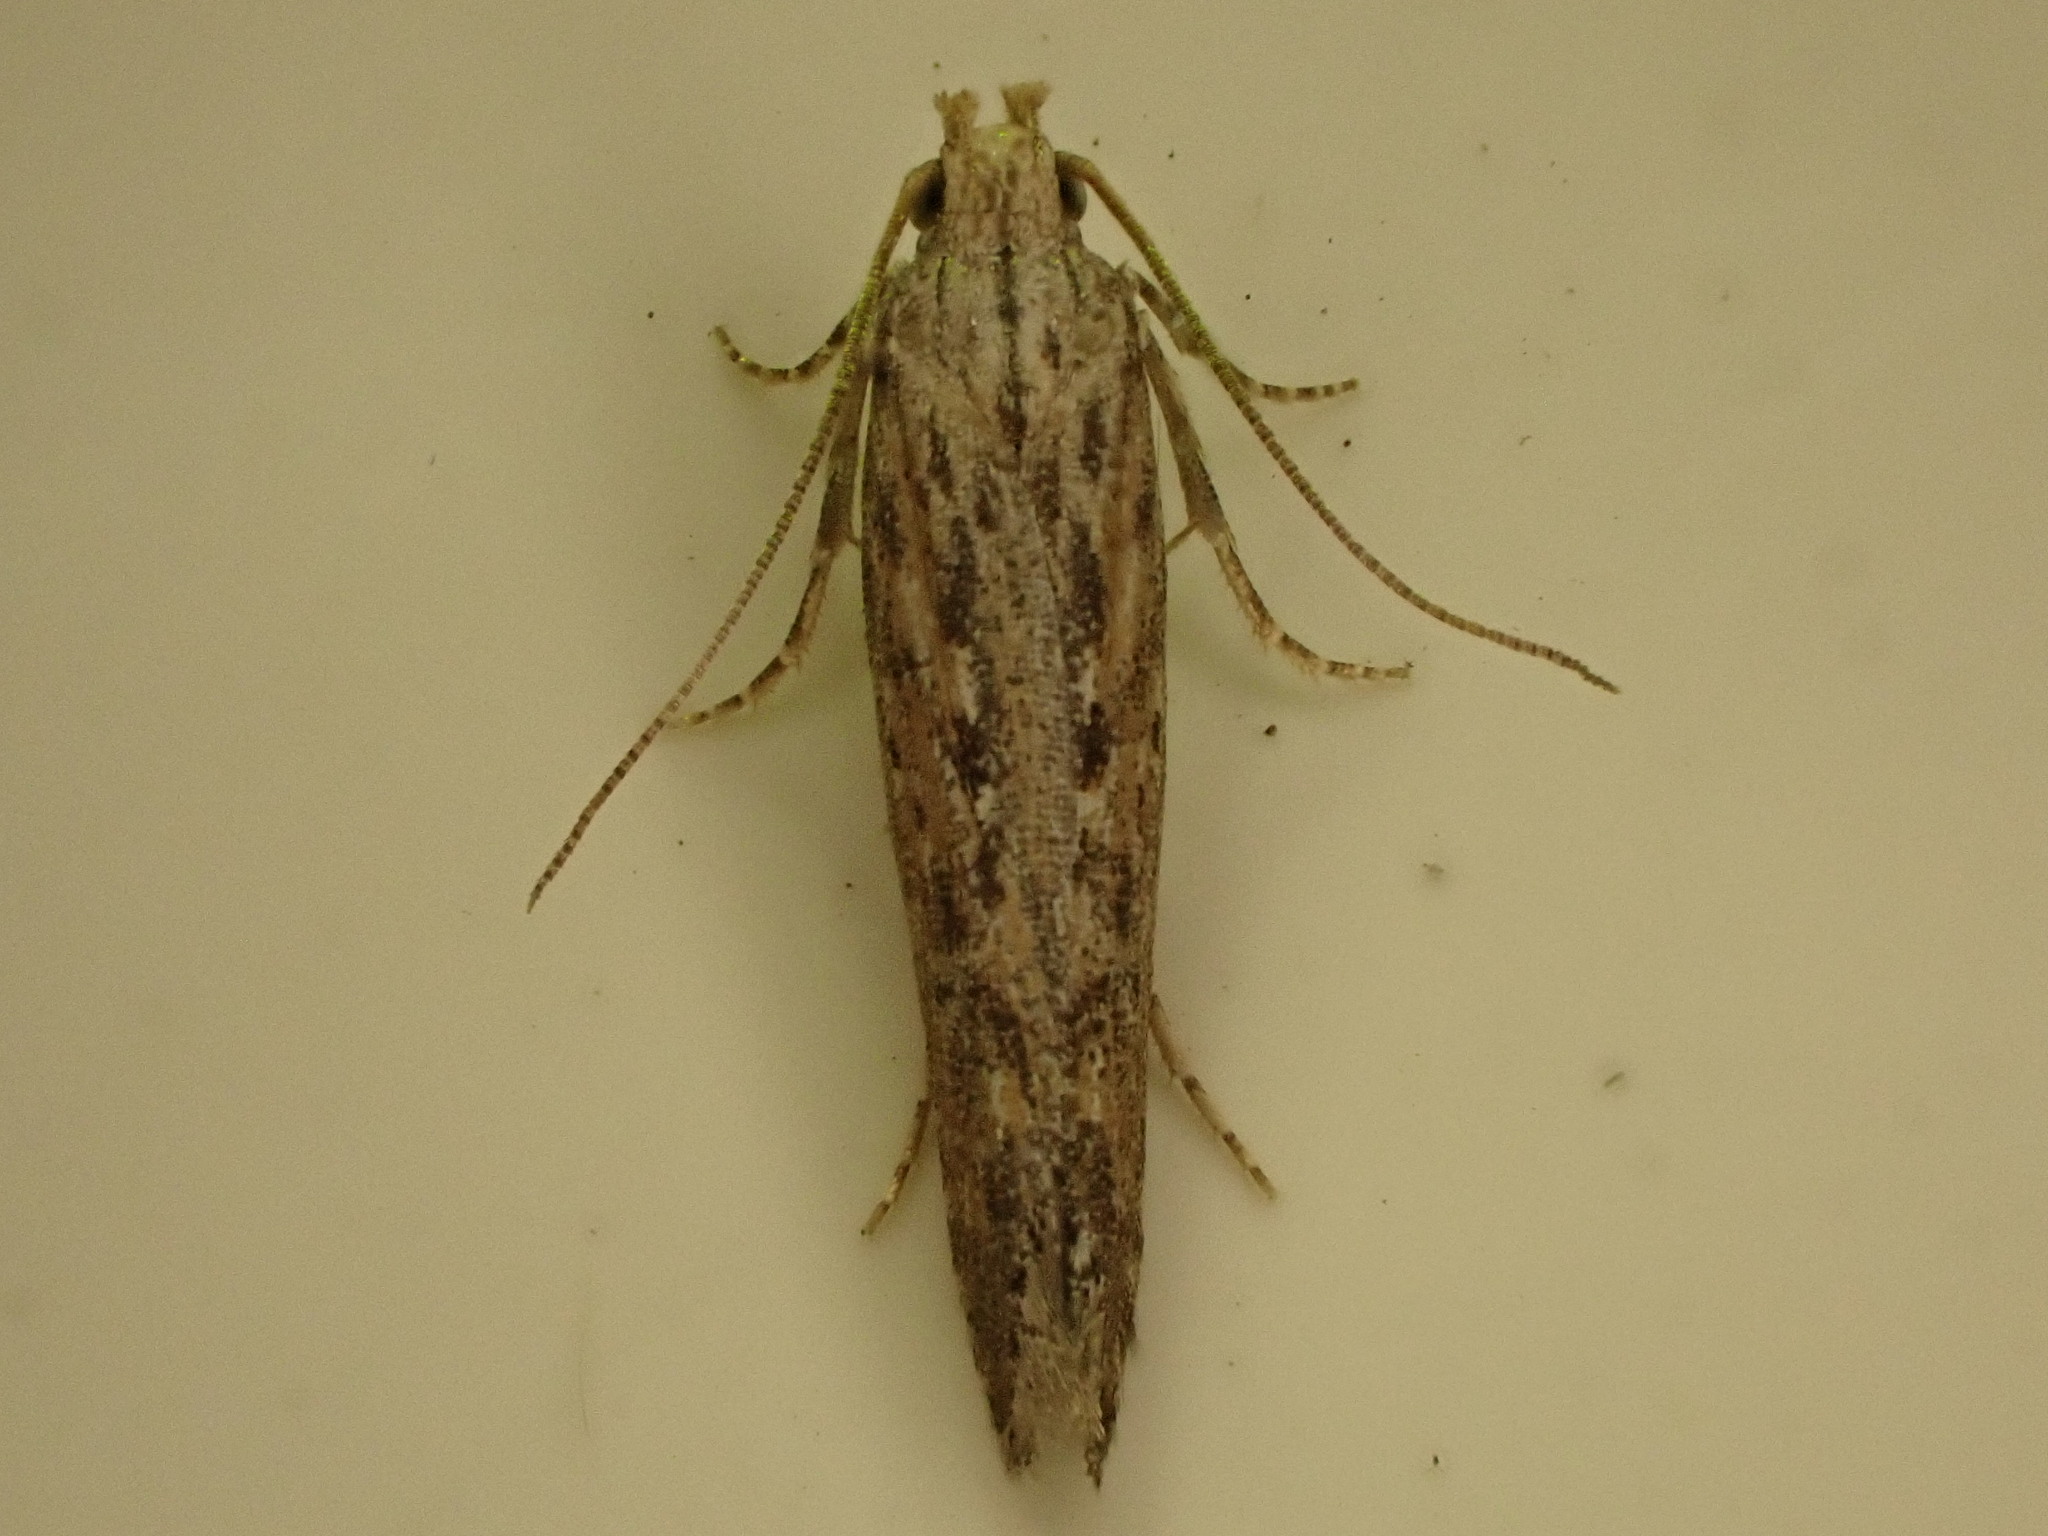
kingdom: Animalia
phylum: Arthropoda
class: Insecta
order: Lepidoptera
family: Gelechiidae
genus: Phthorimaea
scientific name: Phthorimaea operculella
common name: Potato tuber moth
